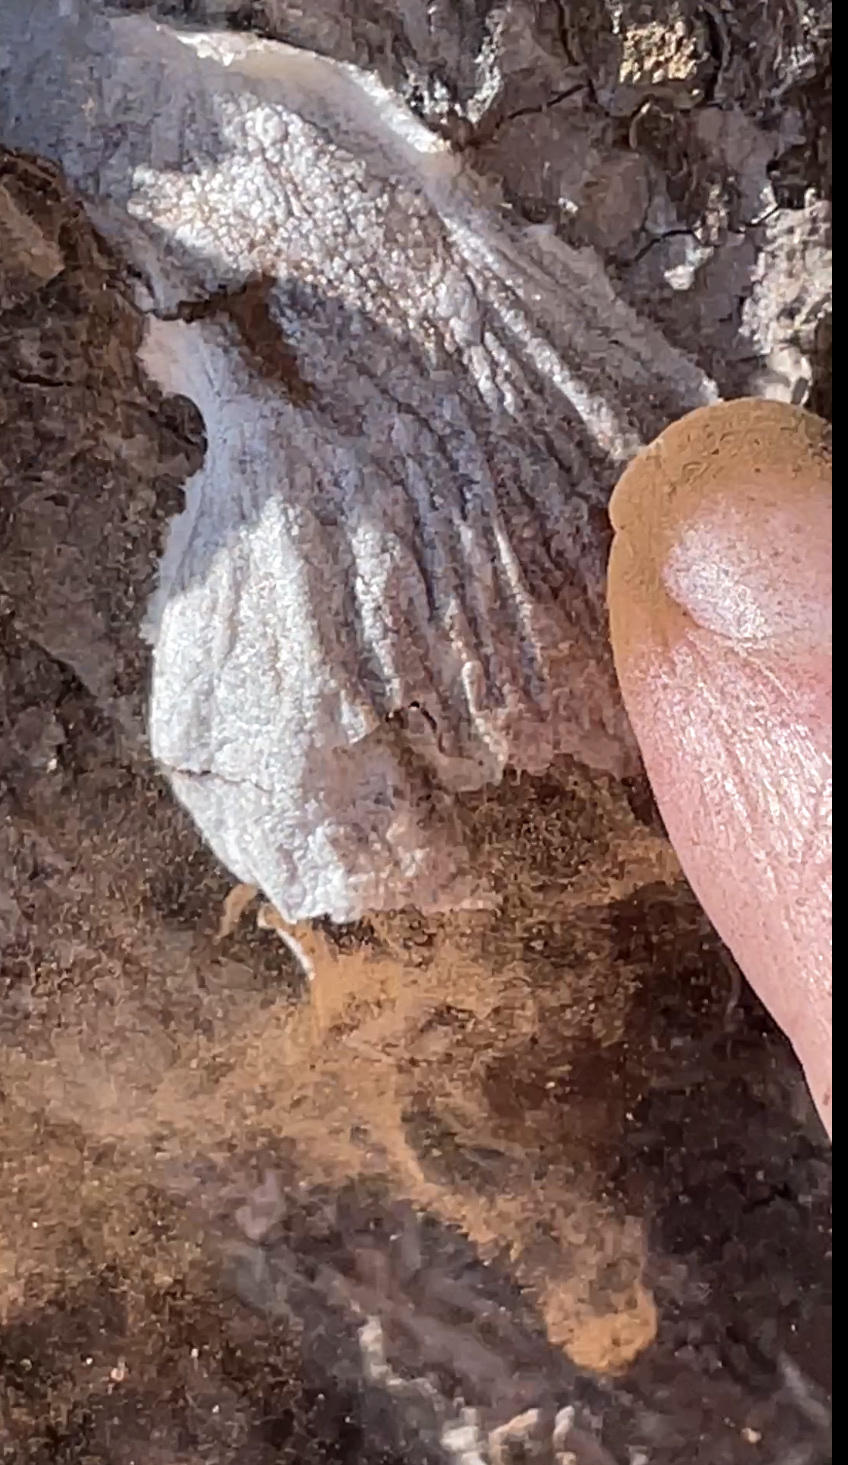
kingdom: Protozoa
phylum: Mycetozoa
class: Myxomycetes
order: Cribrariales
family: Tubiferaceae
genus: Reticularia
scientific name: Reticularia lycoperdon
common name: False puffball
